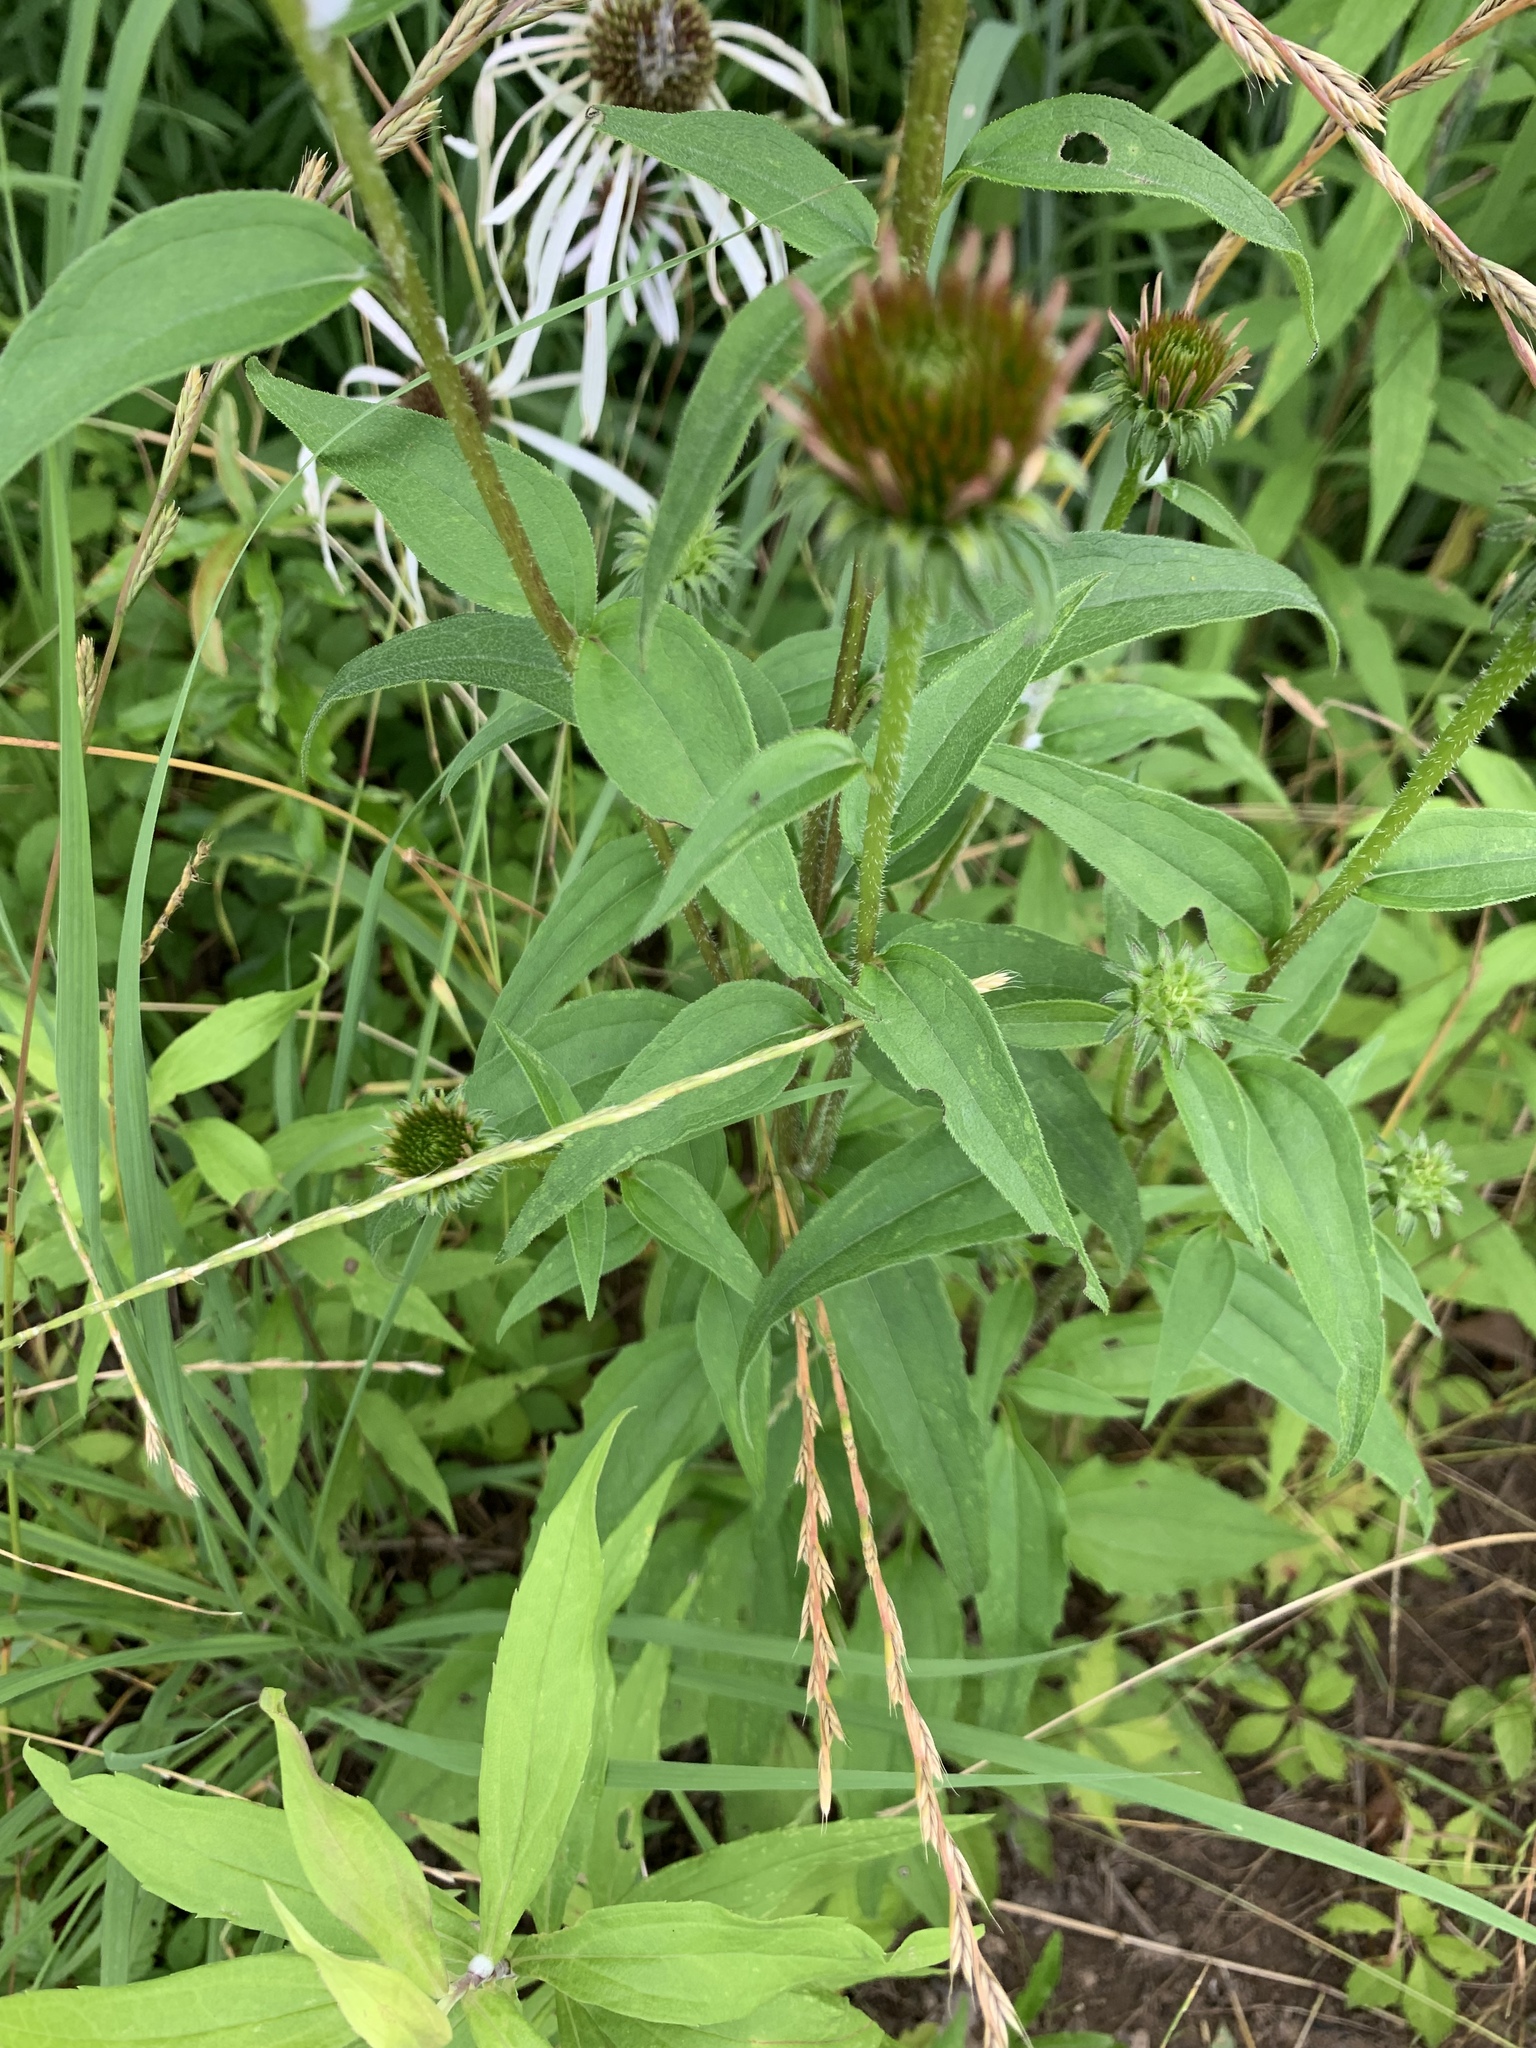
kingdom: Plantae
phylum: Tracheophyta
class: Magnoliopsida
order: Asterales
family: Asteraceae
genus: Echinacea
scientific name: Echinacea purpurea
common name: Broad-leaved purple coneflower
